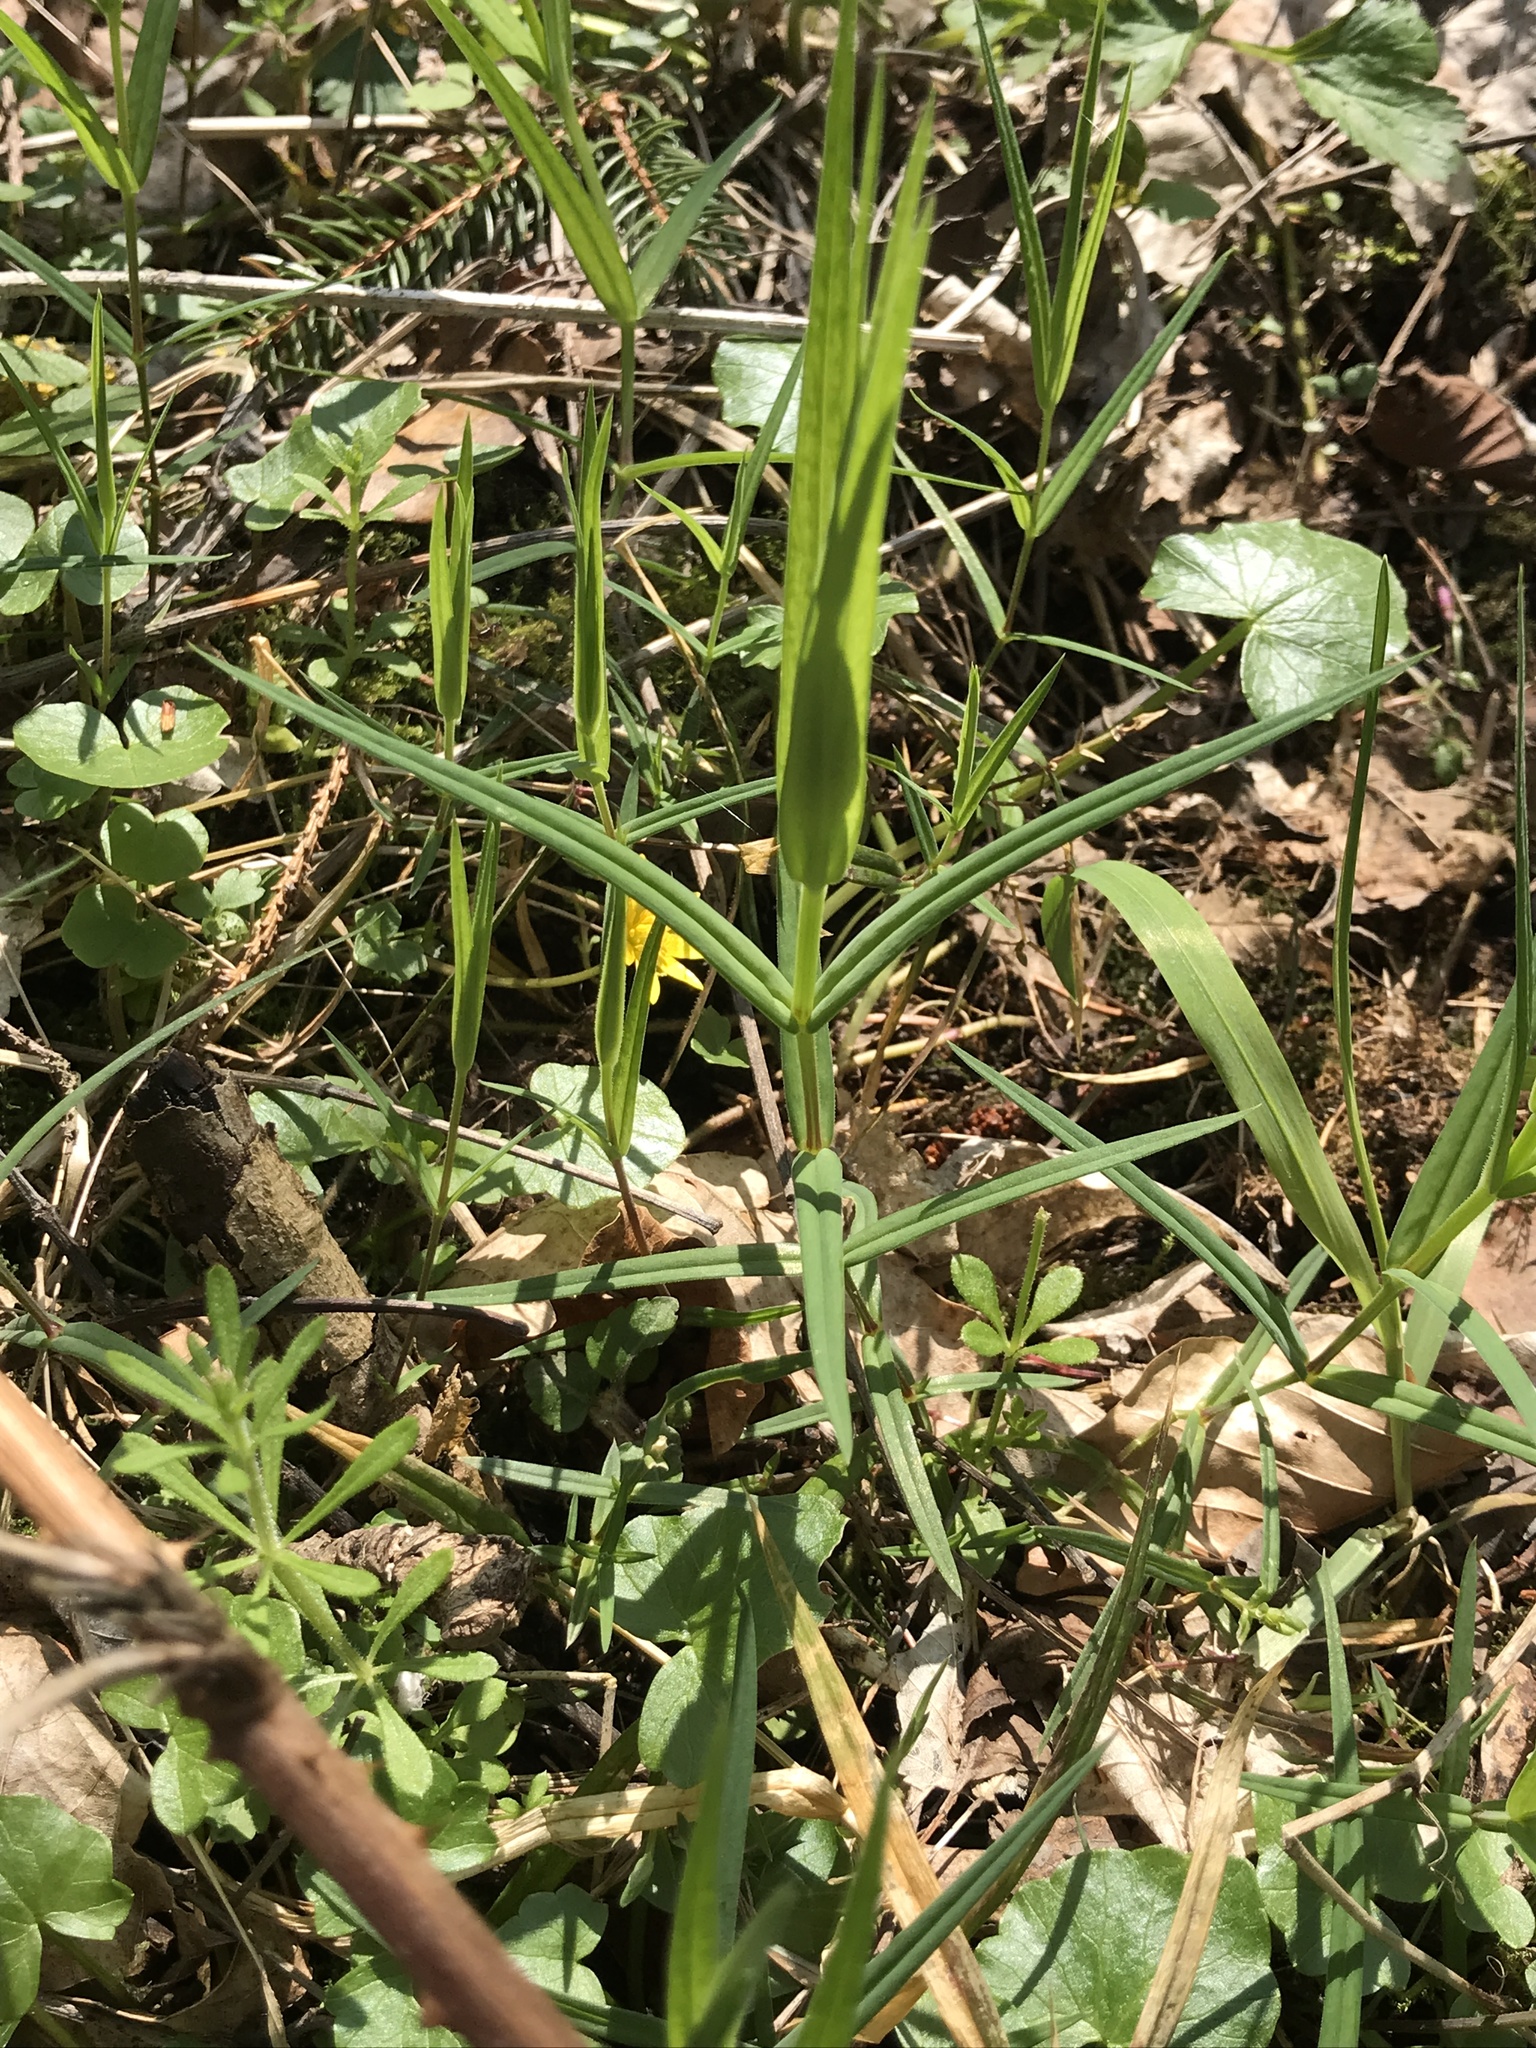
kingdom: Plantae
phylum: Tracheophyta
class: Magnoliopsida
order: Caryophyllales
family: Caryophyllaceae
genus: Rabelera
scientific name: Rabelera holostea
